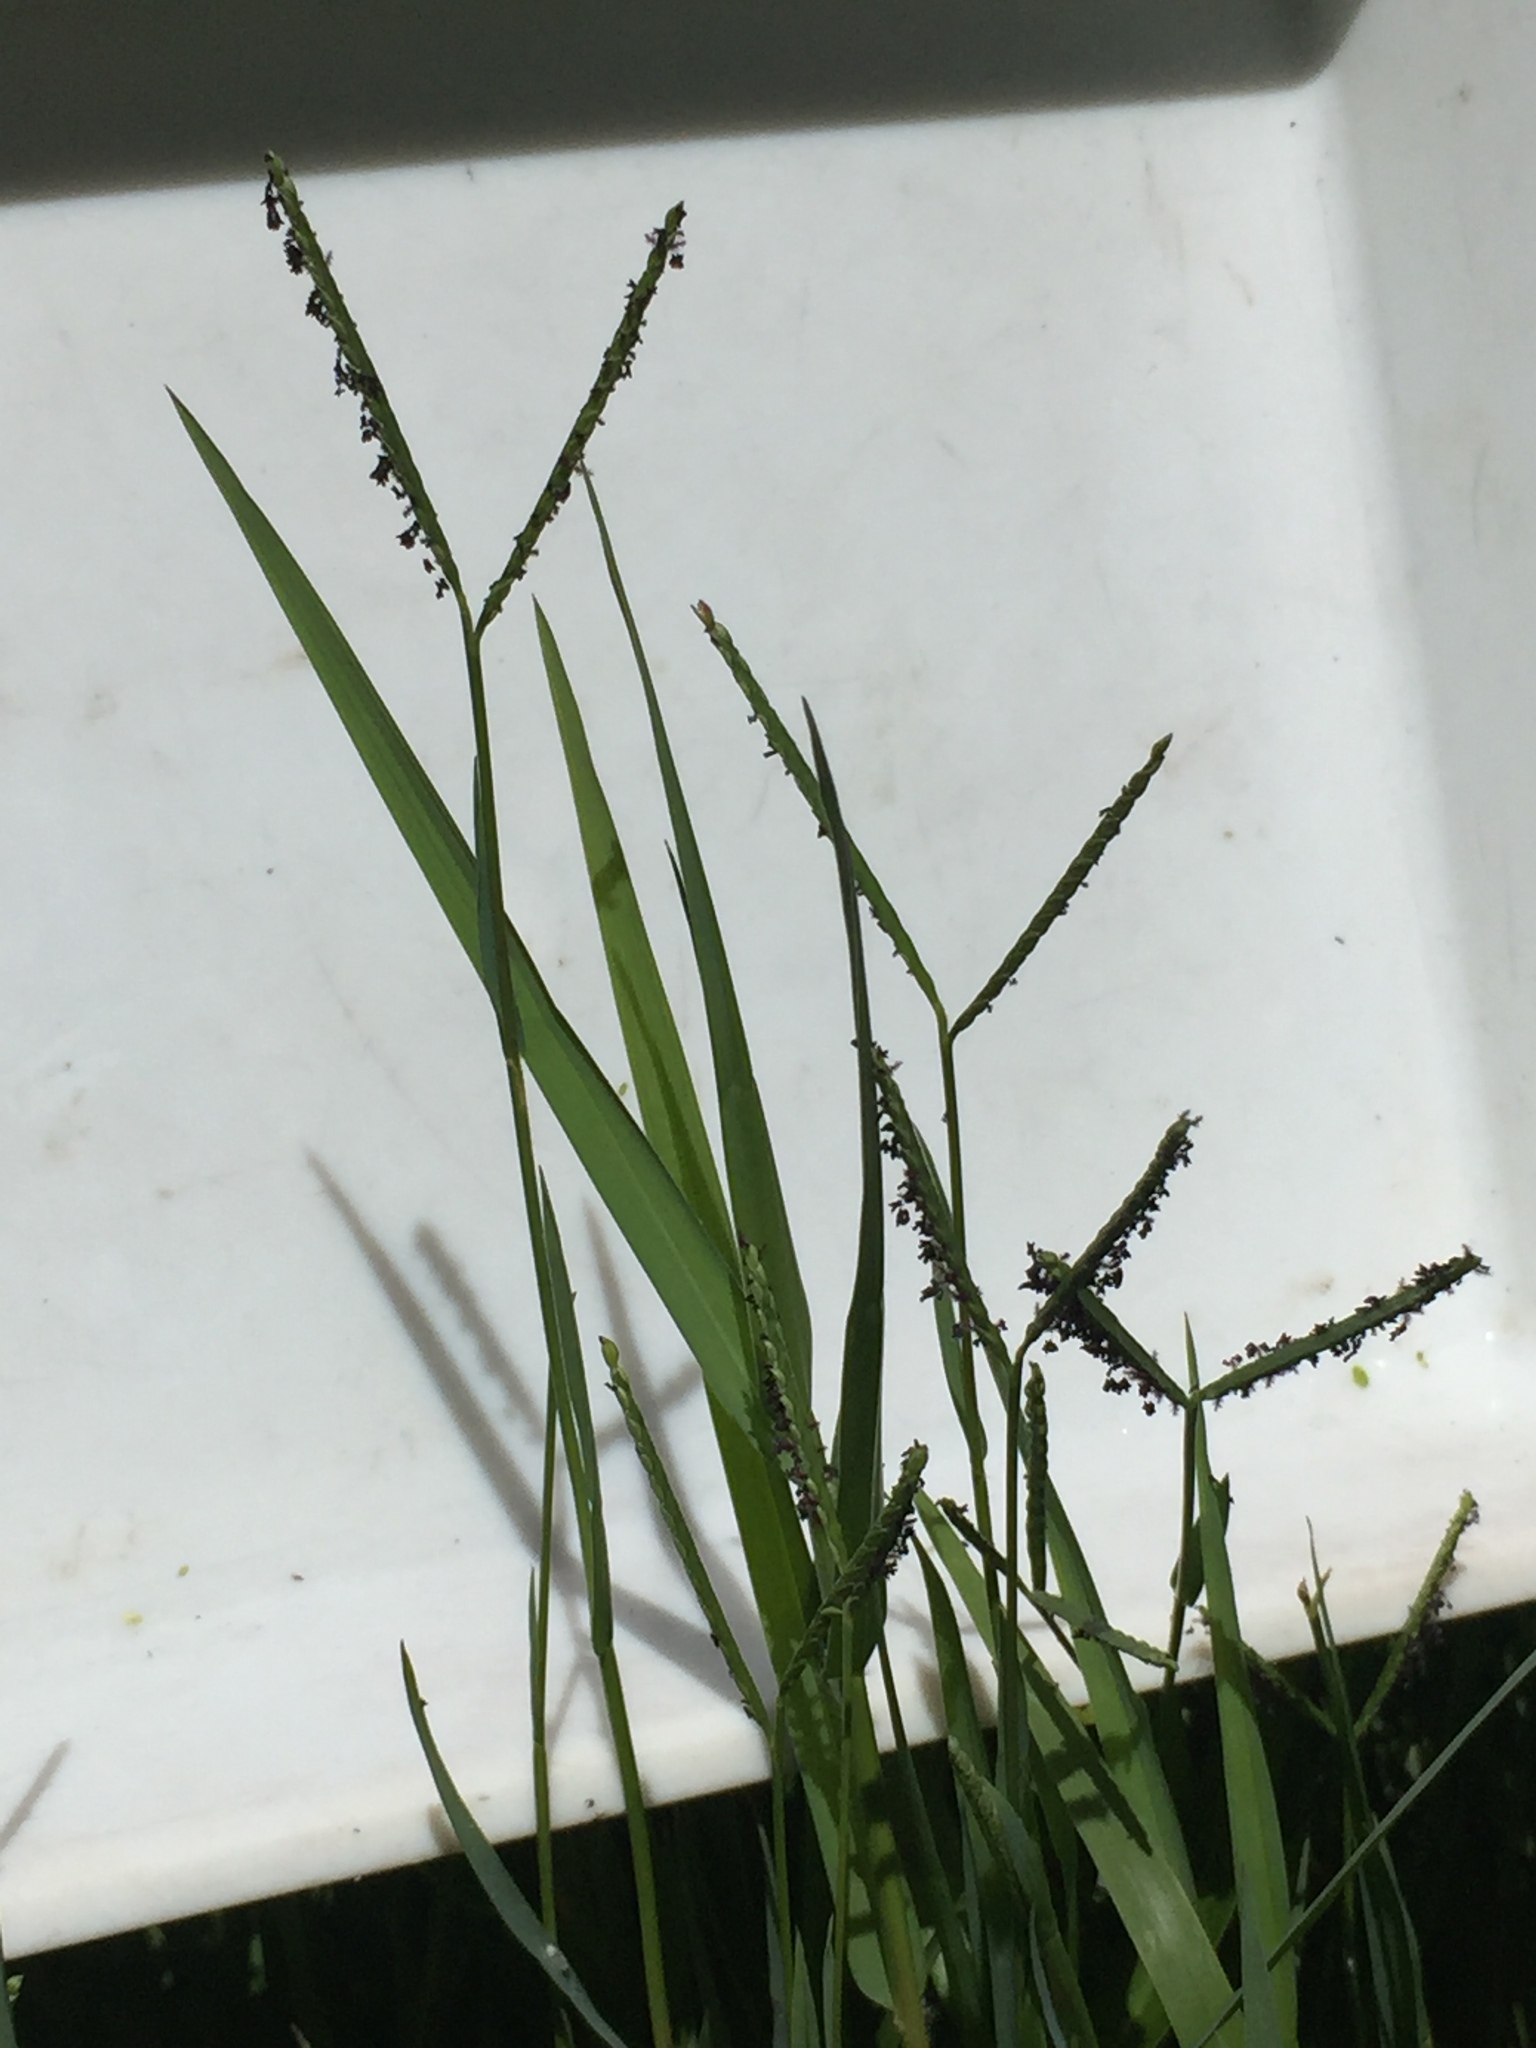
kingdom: Plantae
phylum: Tracheophyta
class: Liliopsida
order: Poales
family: Poaceae
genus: Paspalum
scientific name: Paspalum distichum
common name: Knotgrass
